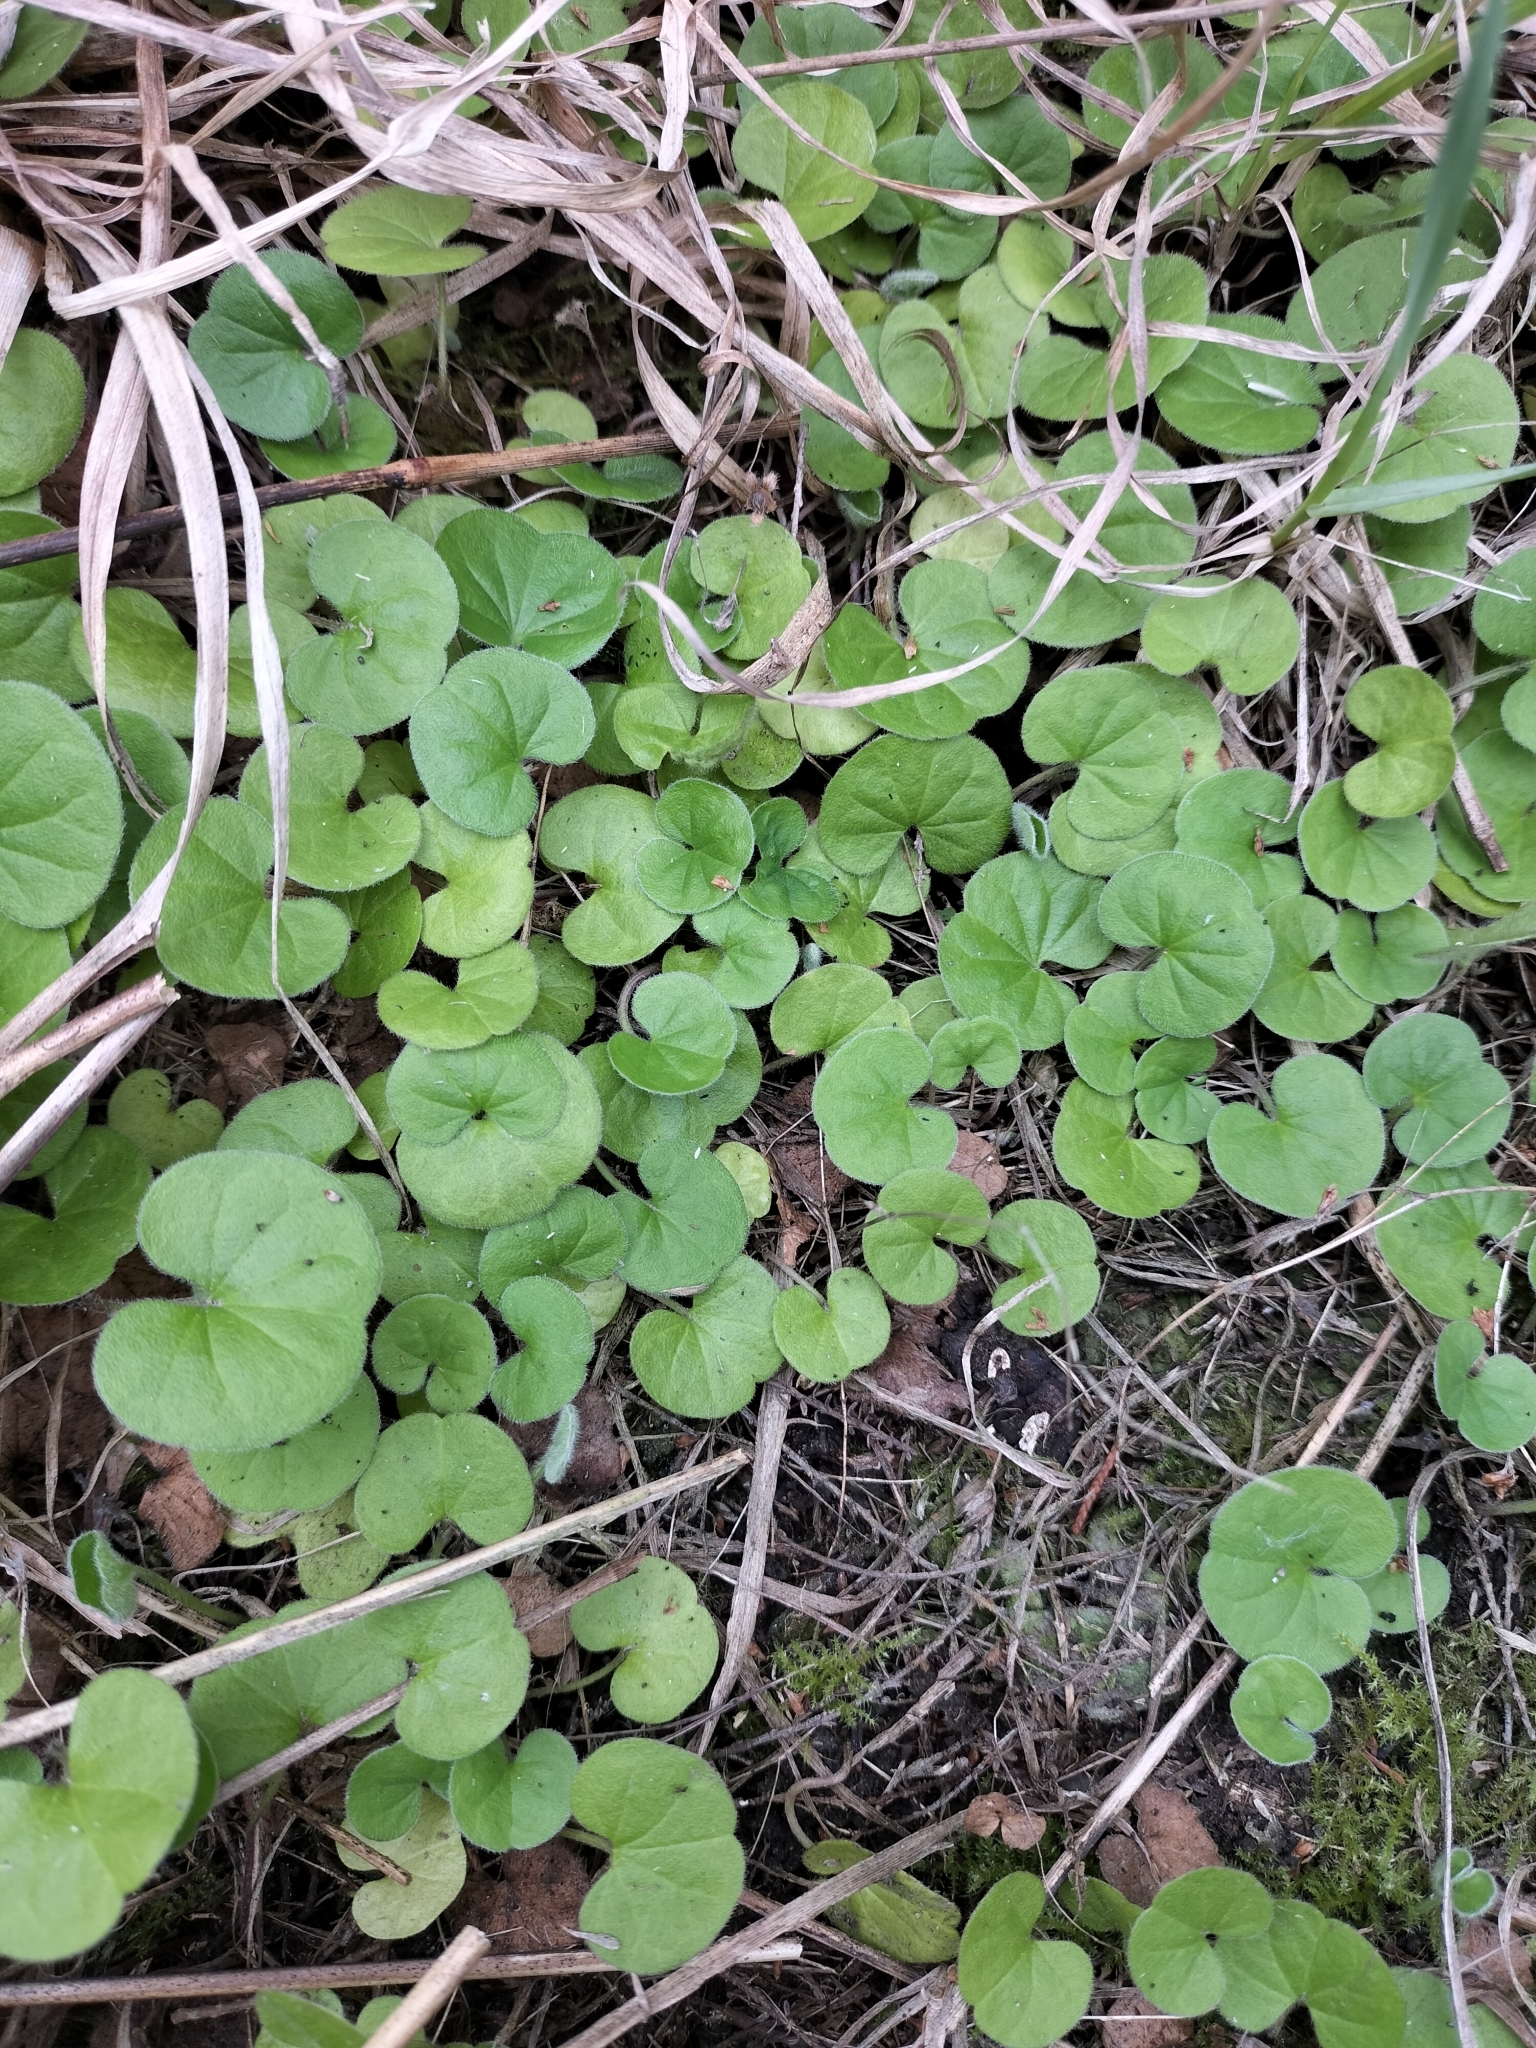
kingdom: Plantae
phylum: Tracheophyta
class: Magnoliopsida
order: Solanales
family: Convolvulaceae
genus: Dichondra
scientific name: Dichondra repens
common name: Kidneyweed
